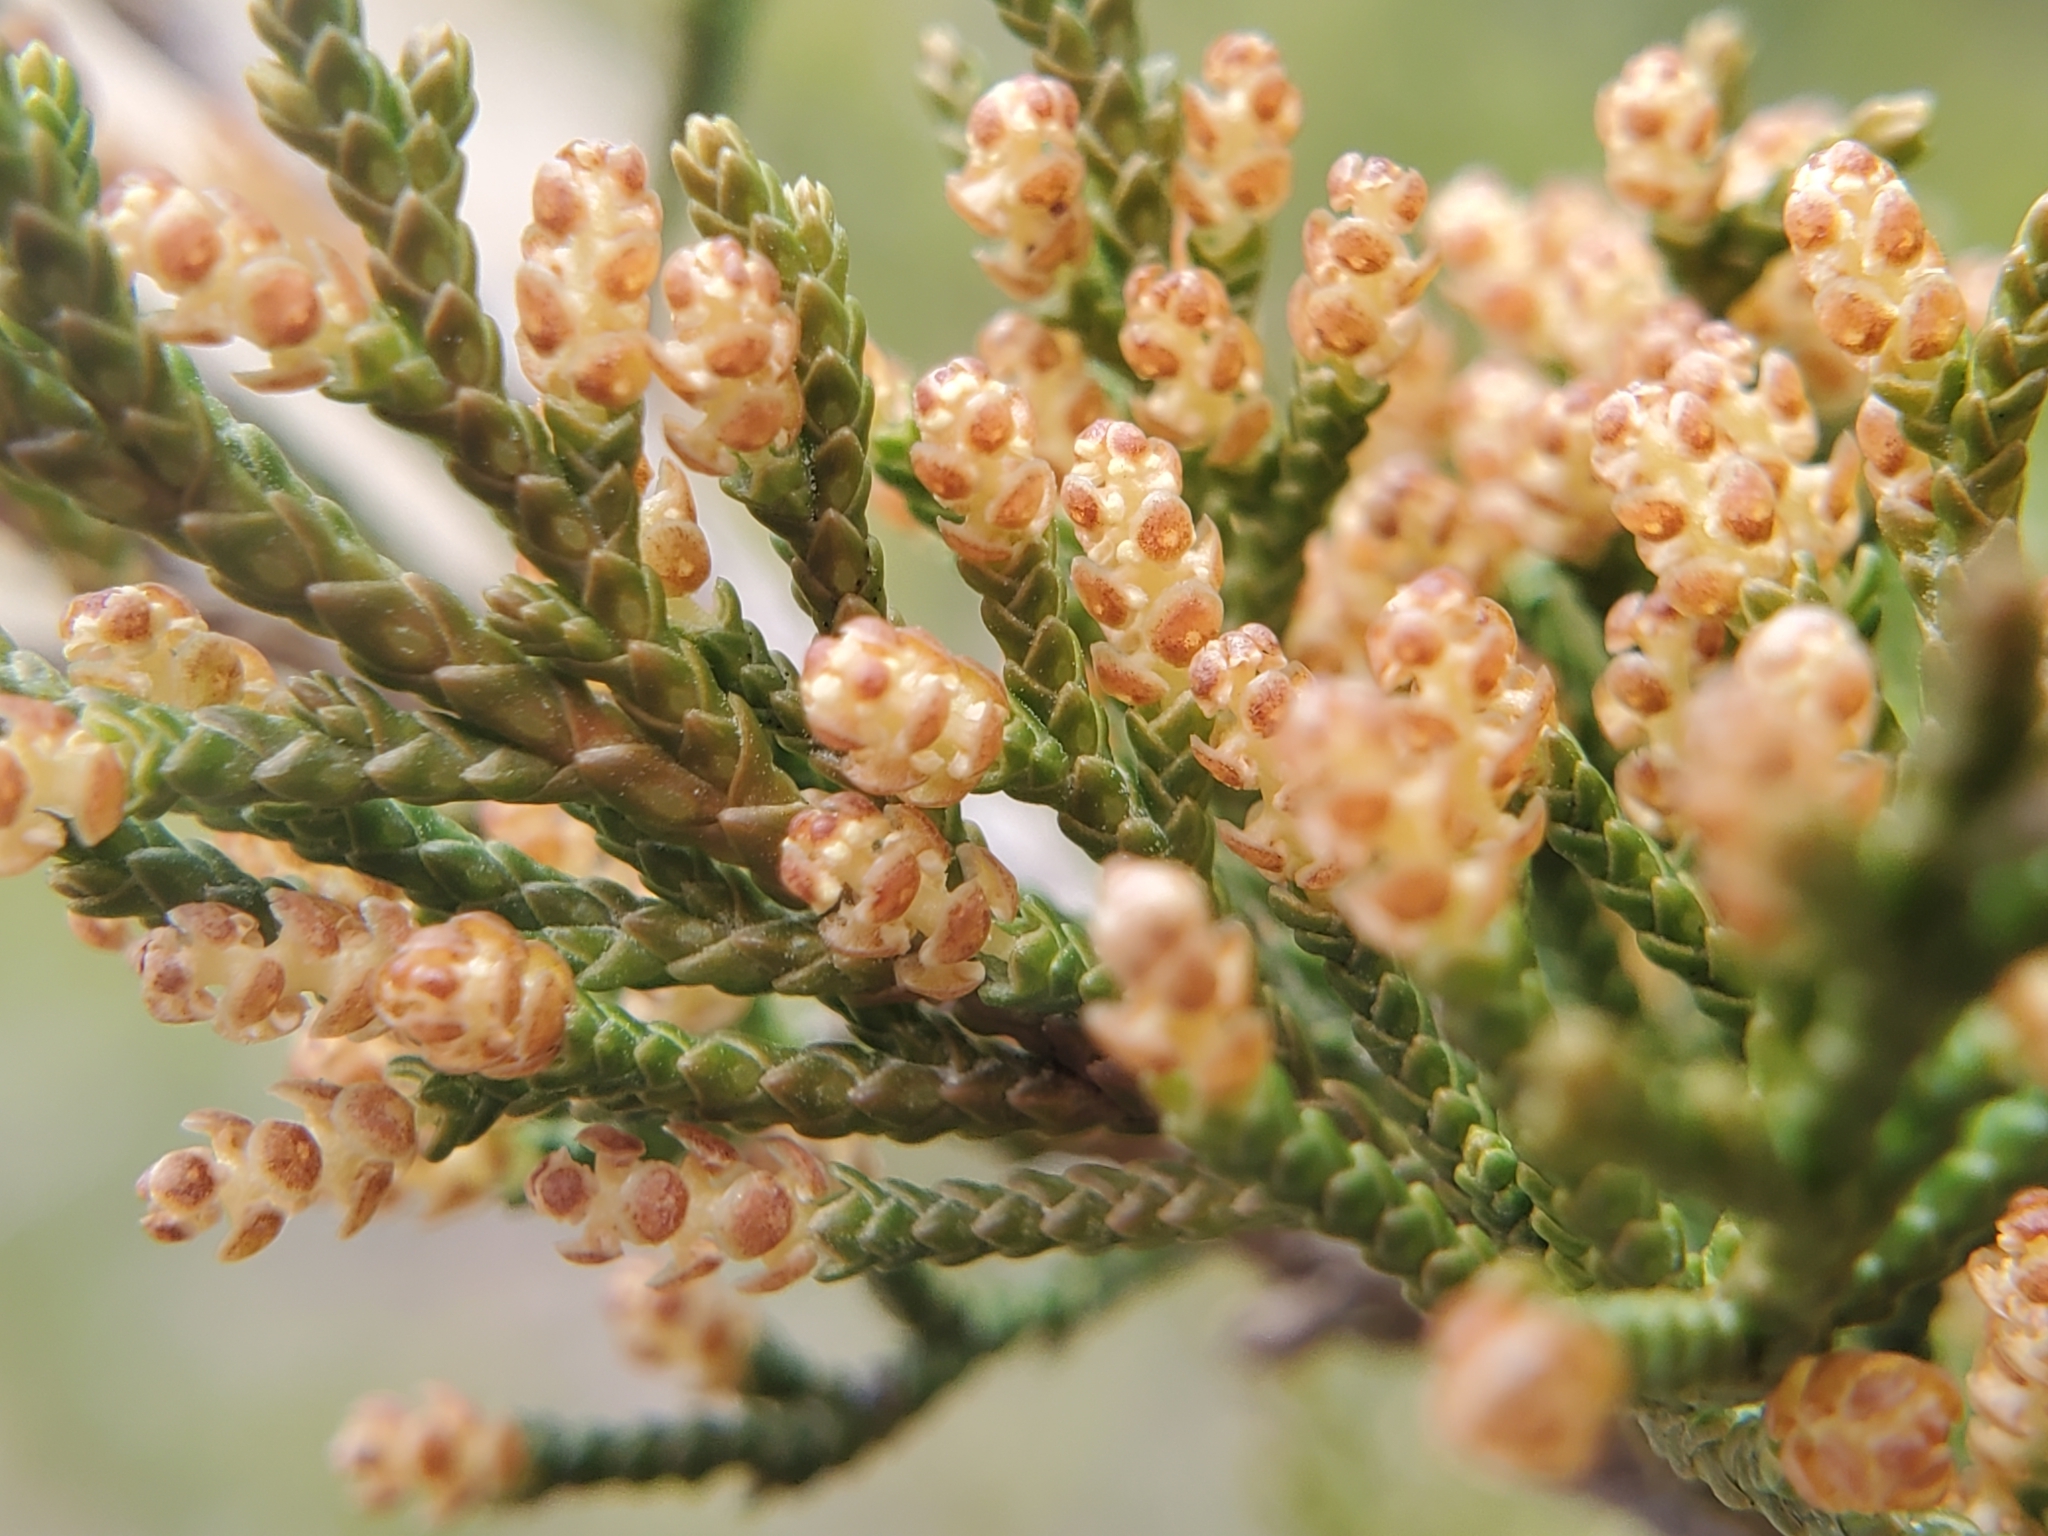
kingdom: Plantae
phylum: Tracheophyta
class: Pinopsida
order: Pinales
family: Cupressaceae
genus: Juniperus
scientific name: Juniperus virginiana
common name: Red juniper
